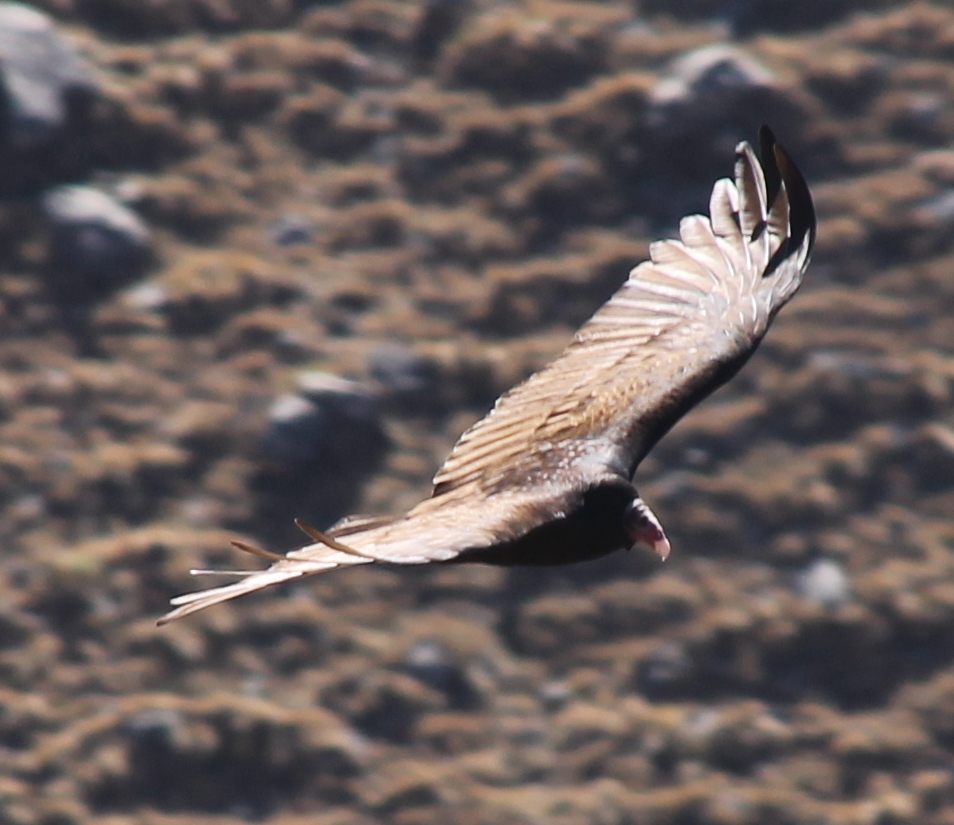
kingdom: Animalia
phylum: Chordata
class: Aves
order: Accipitriformes
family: Cathartidae
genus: Cathartes
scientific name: Cathartes aura
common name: Turkey vulture
